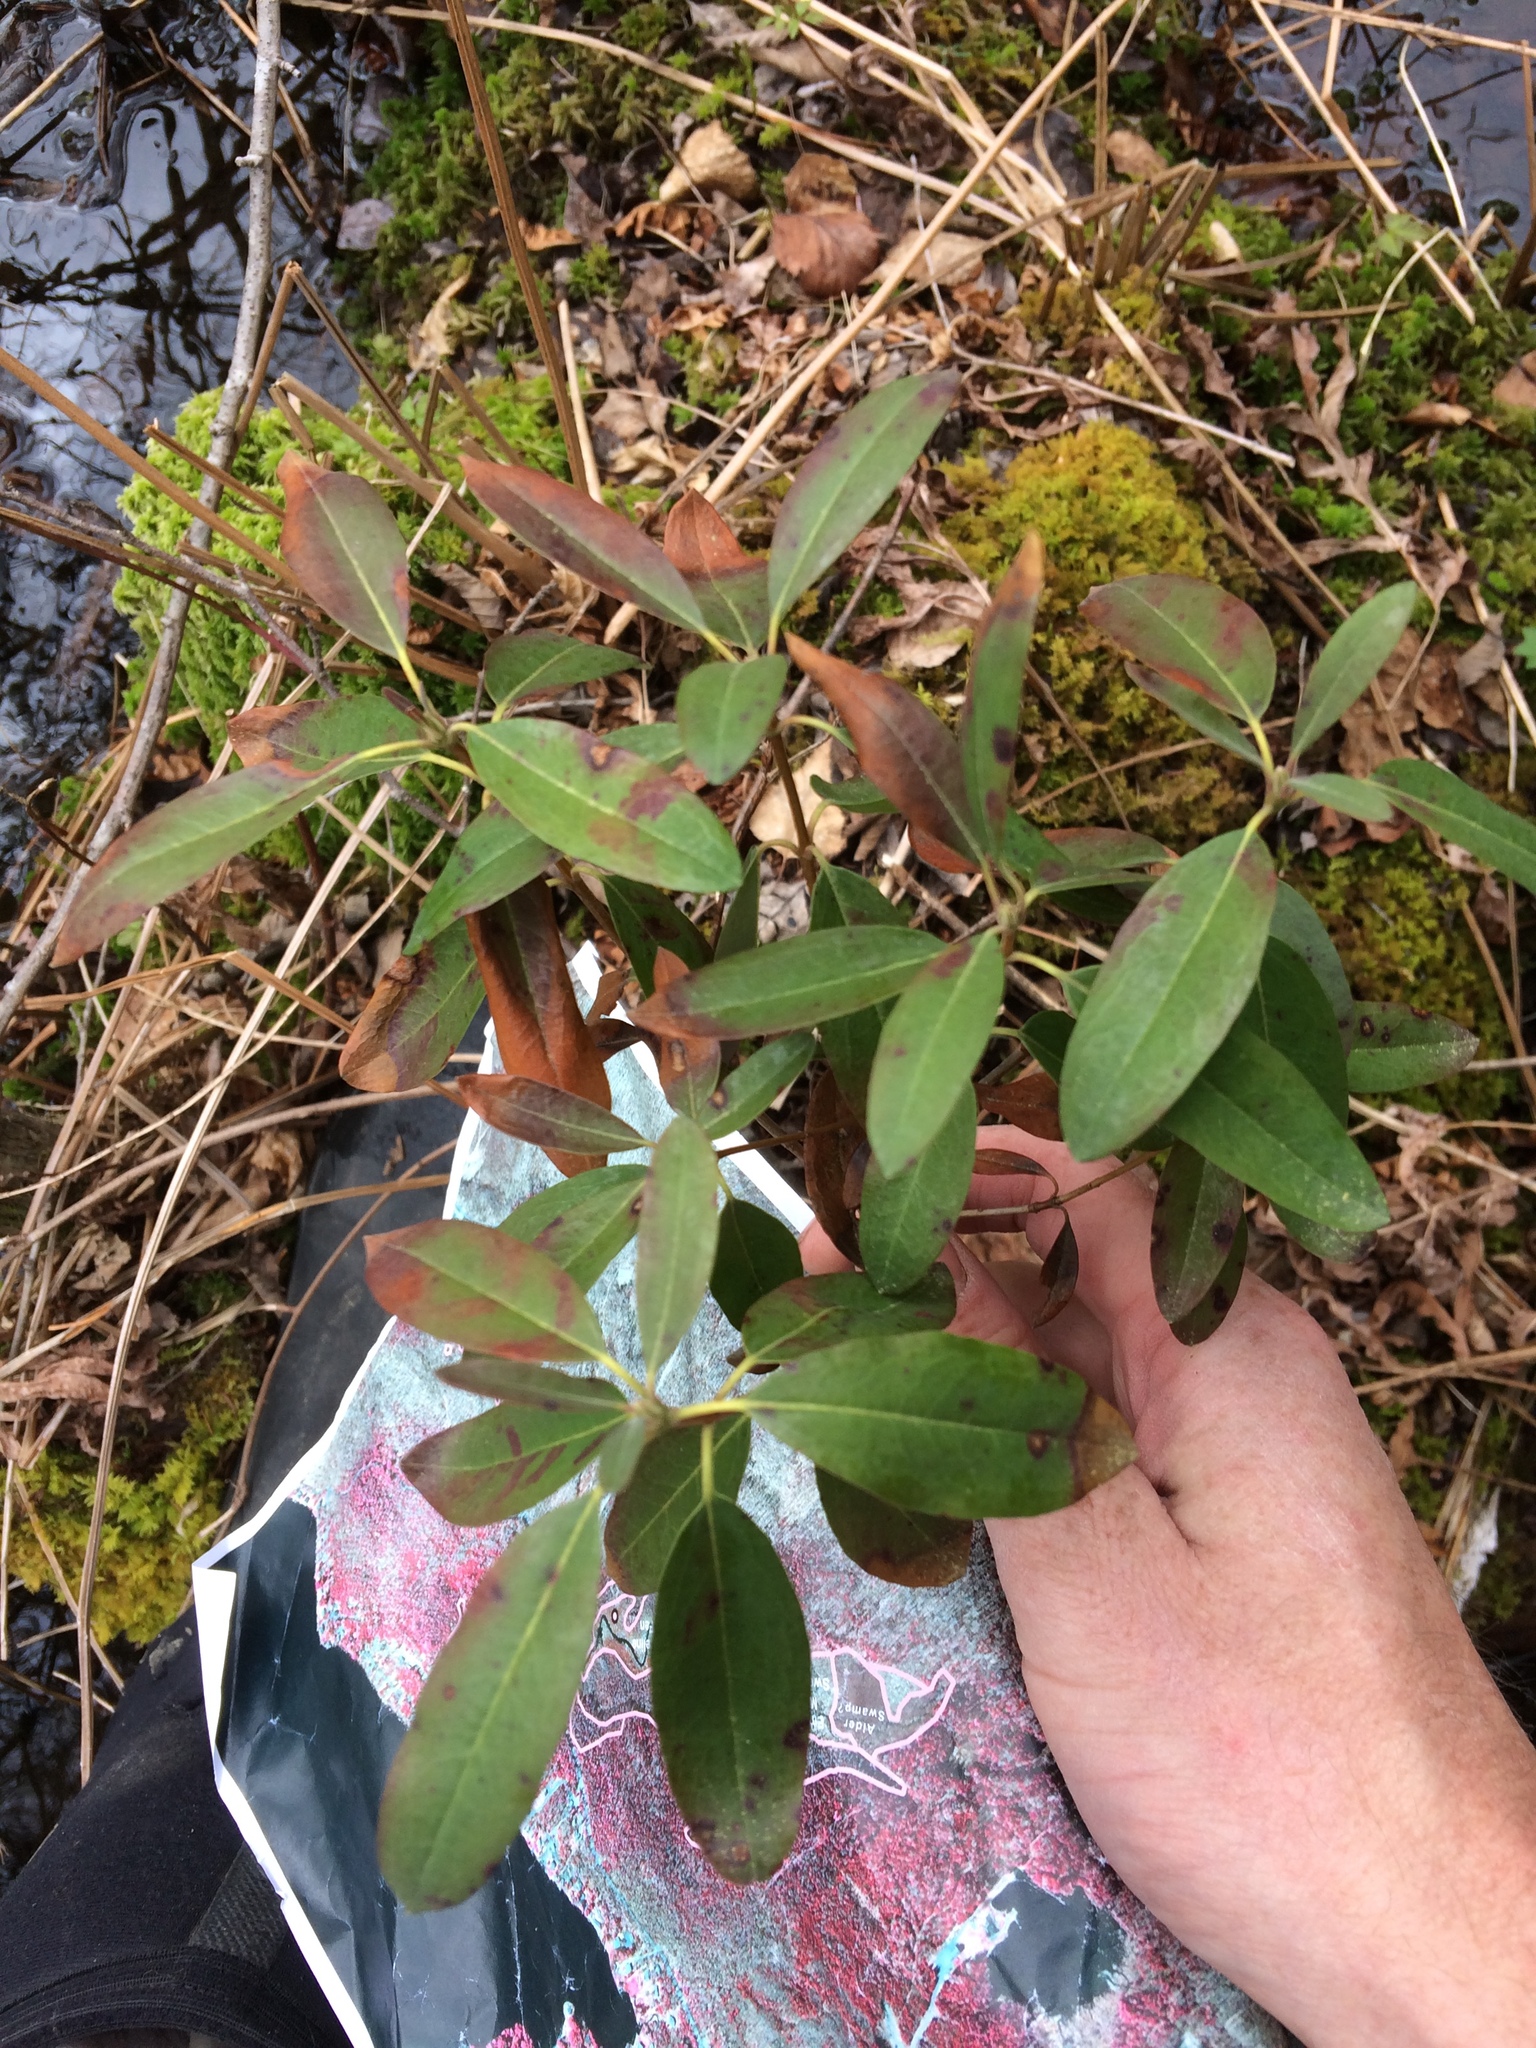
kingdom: Plantae
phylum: Tracheophyta
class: Magnoliopsida
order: Ericales
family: Ericaceae
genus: Kalmia
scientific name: Kalmia angustifolia
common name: Sheep-laurel
